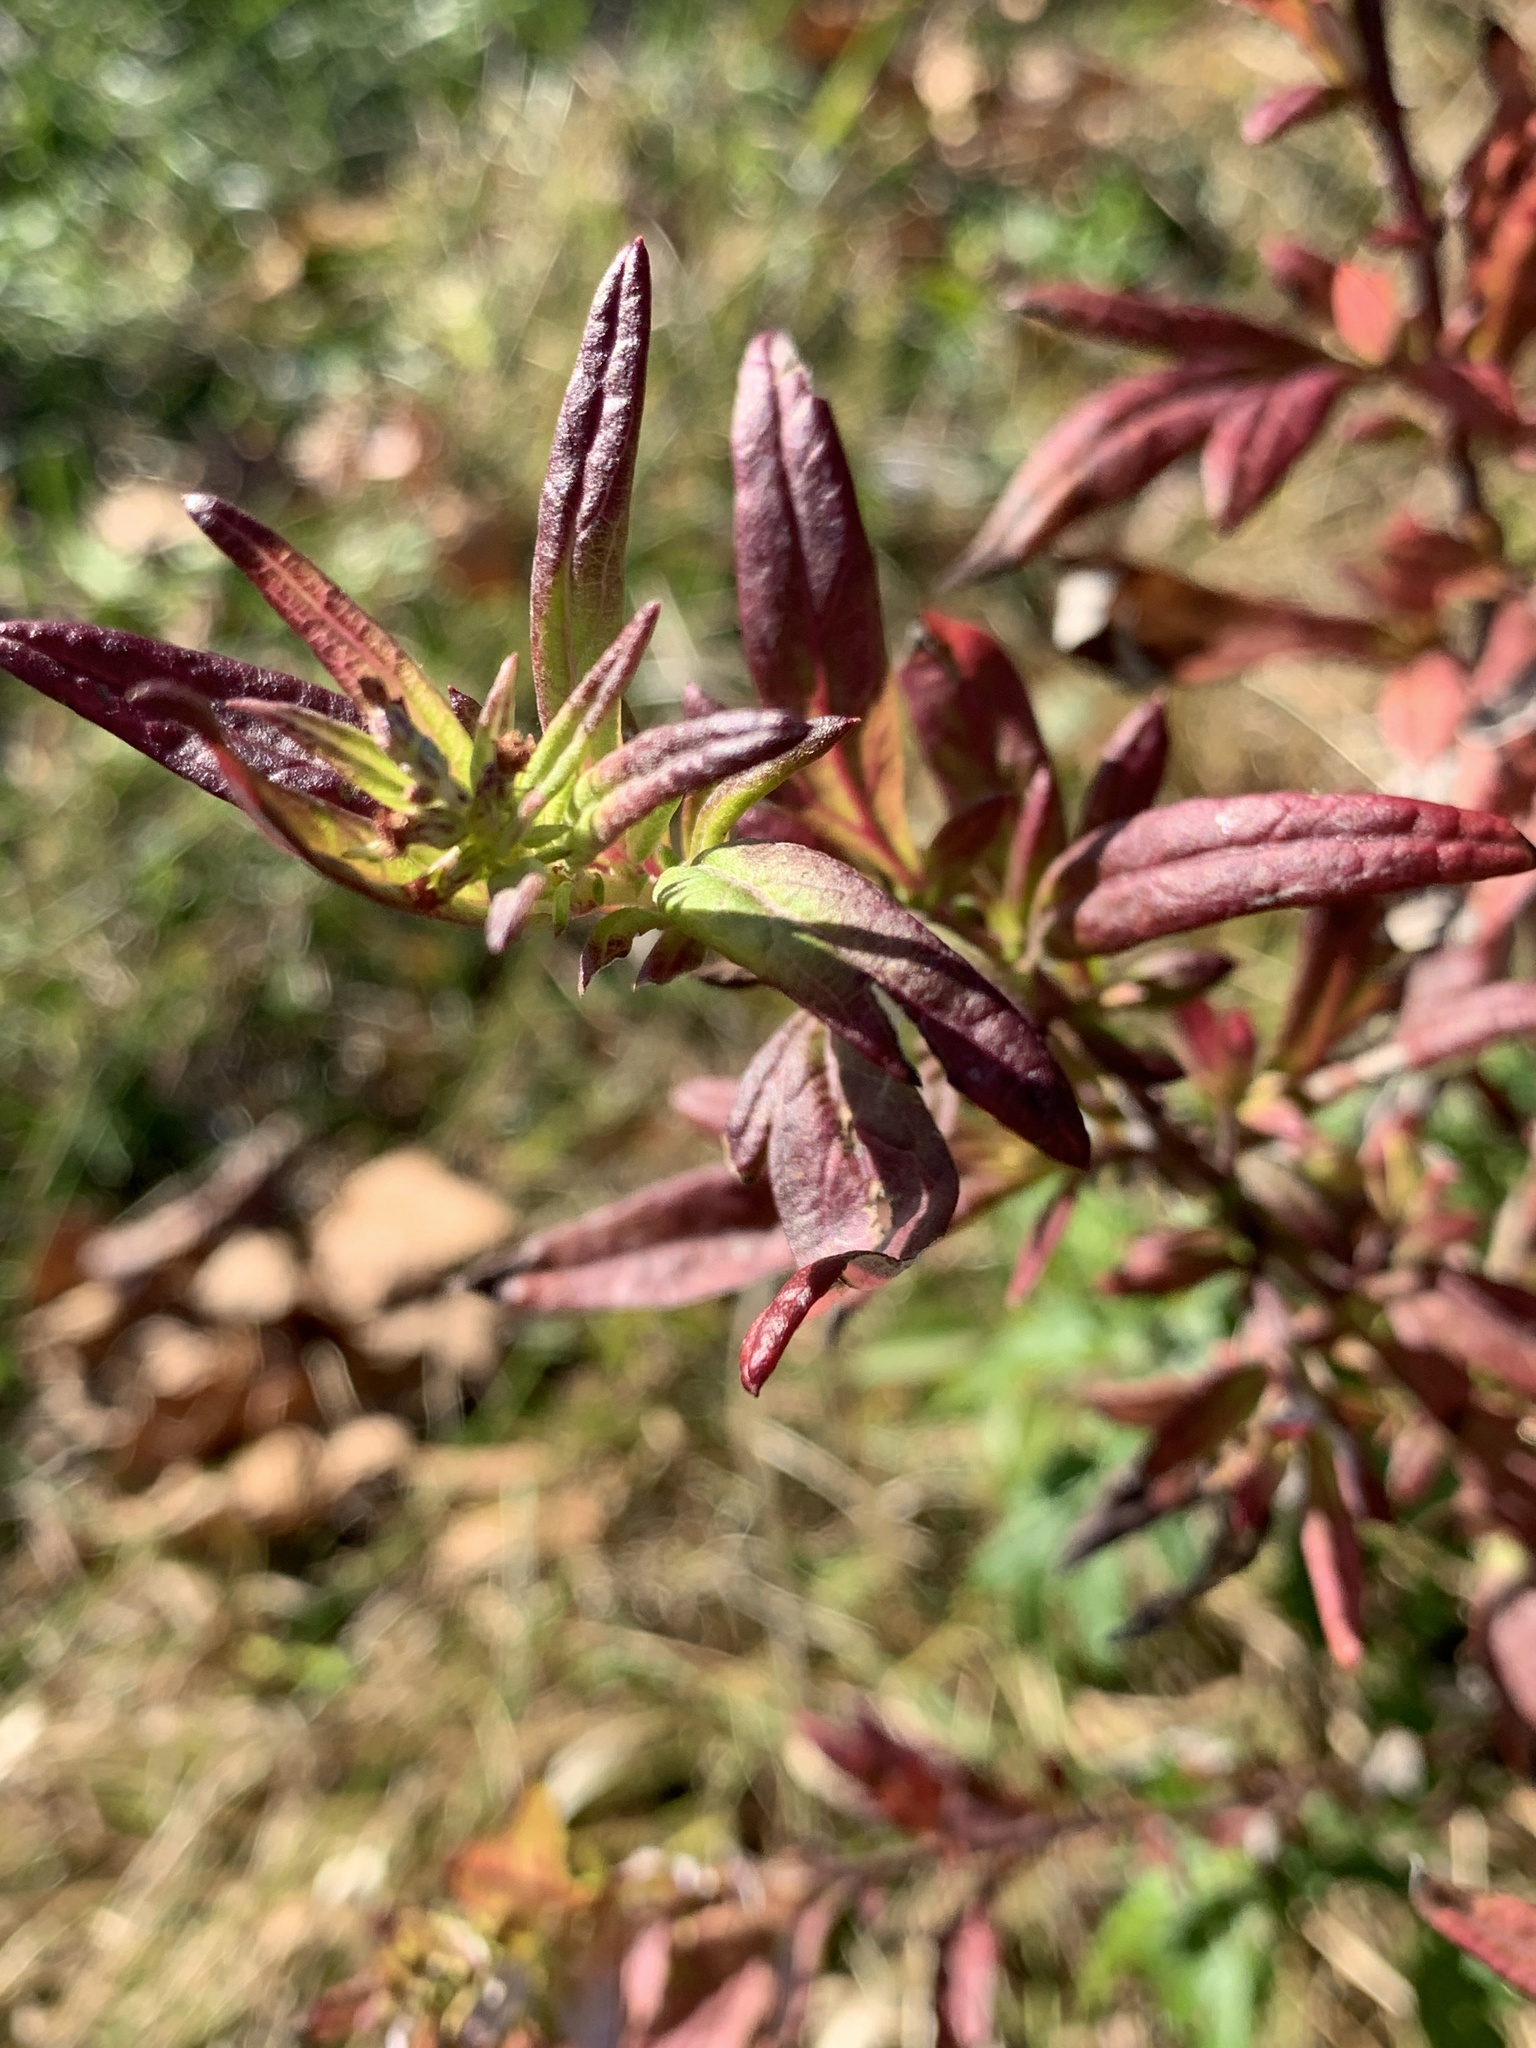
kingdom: Plantae
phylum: Tracheophyta
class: Magnoliopsida
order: Asterales
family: Asteraceae
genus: Artemisia
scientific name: Artemisia vulgaris
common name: Mugwort
